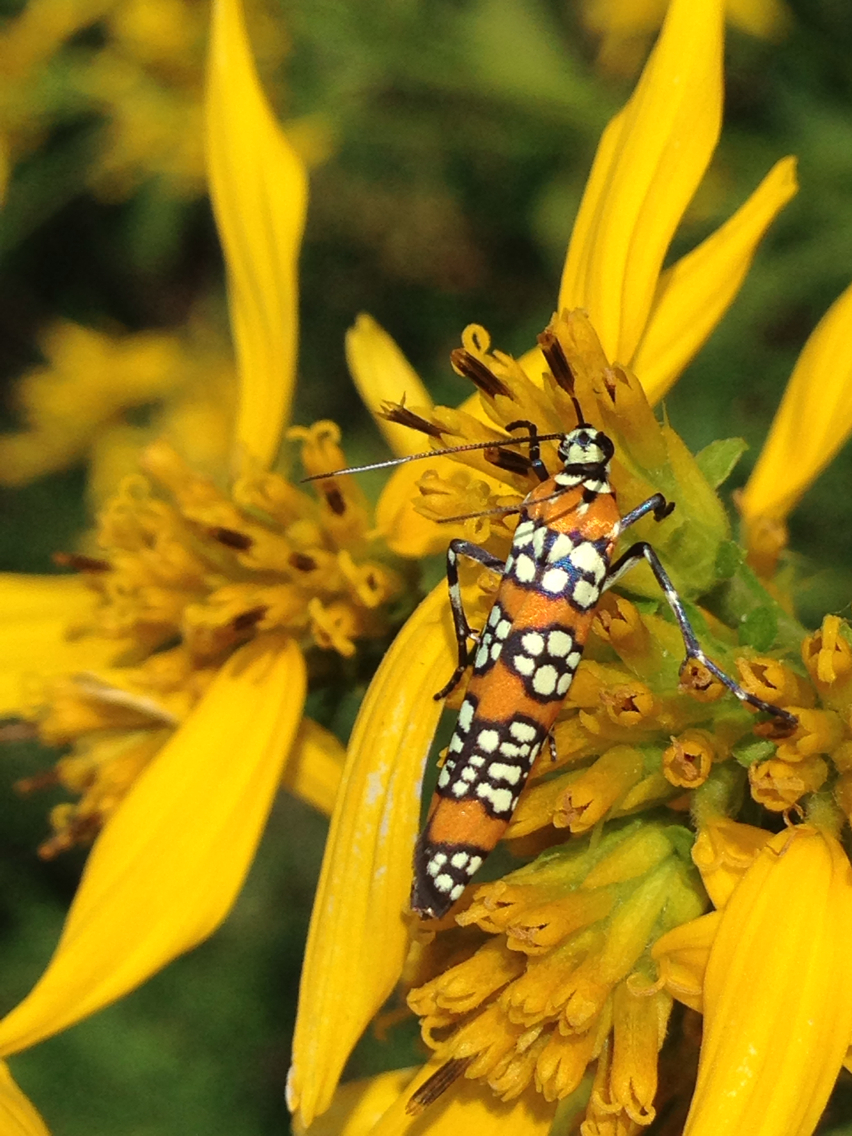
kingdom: Animalia
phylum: Arthropoda
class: Insecta
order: Lepidoptera
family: Attevidae
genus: Atteva
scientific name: Atteva punctella
